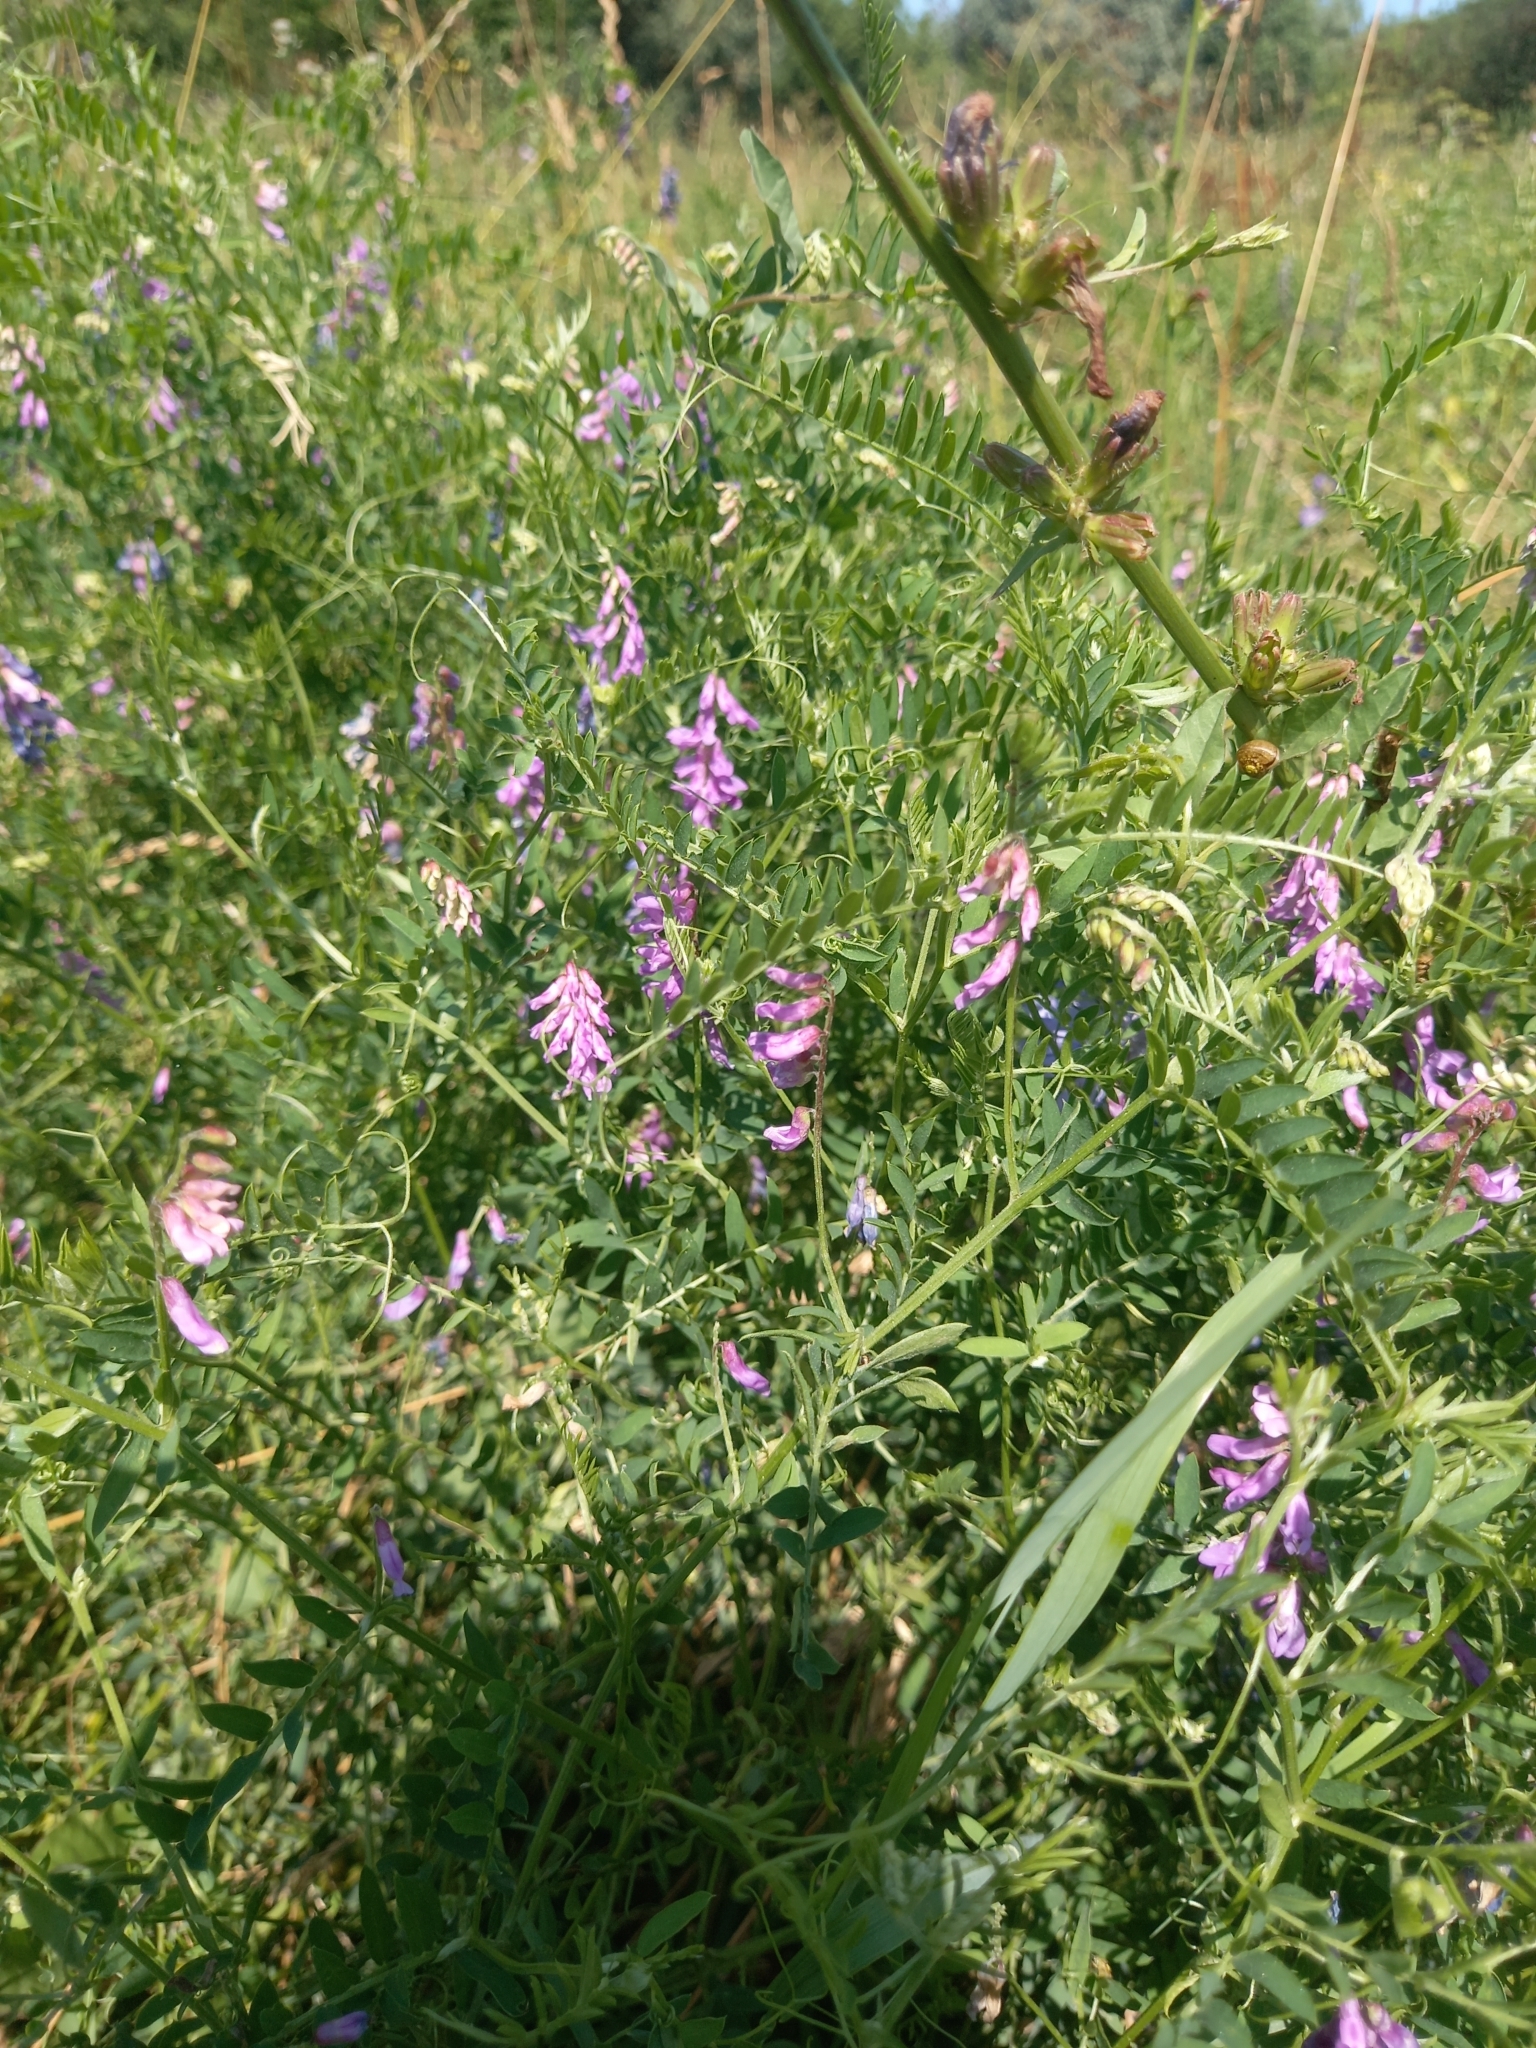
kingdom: Plantae
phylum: Tracheophyta
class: Magnoliopsida
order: Fabales
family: Fabaceae
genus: Vicia
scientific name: Vicia cracca
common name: Bird vetch
